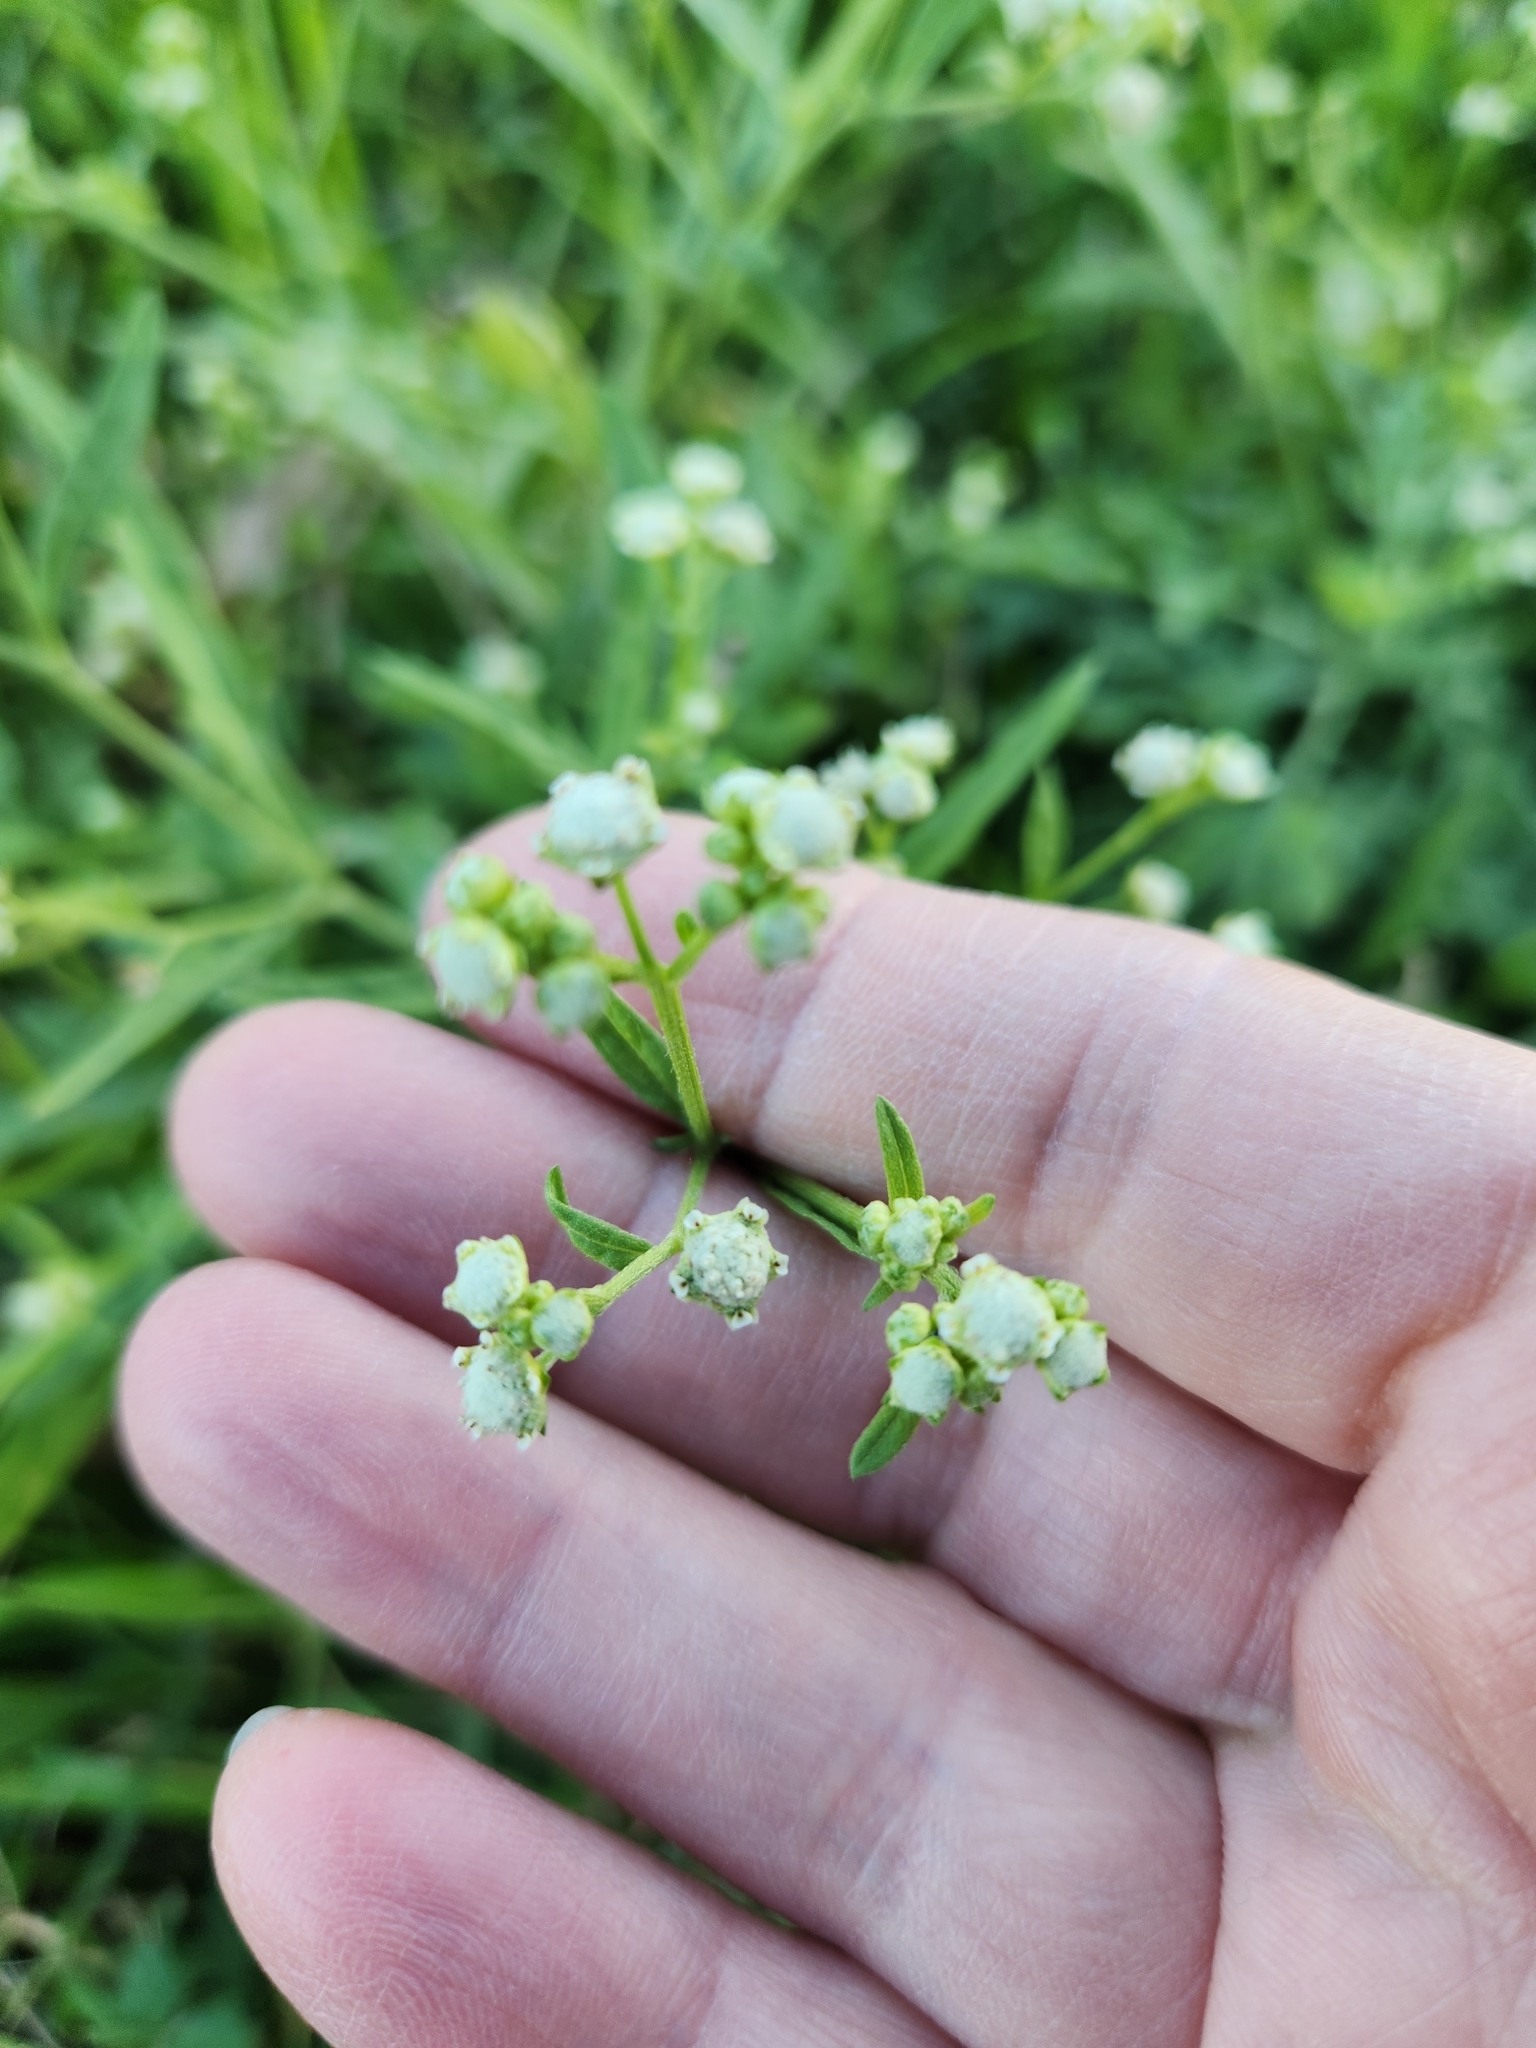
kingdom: Plantae
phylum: Tracheophyta
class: Magnoliopsida
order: Asterales
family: Asteraceae
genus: Parthenium
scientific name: Parthenium hysterophorus
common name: Santa maria feverfew
